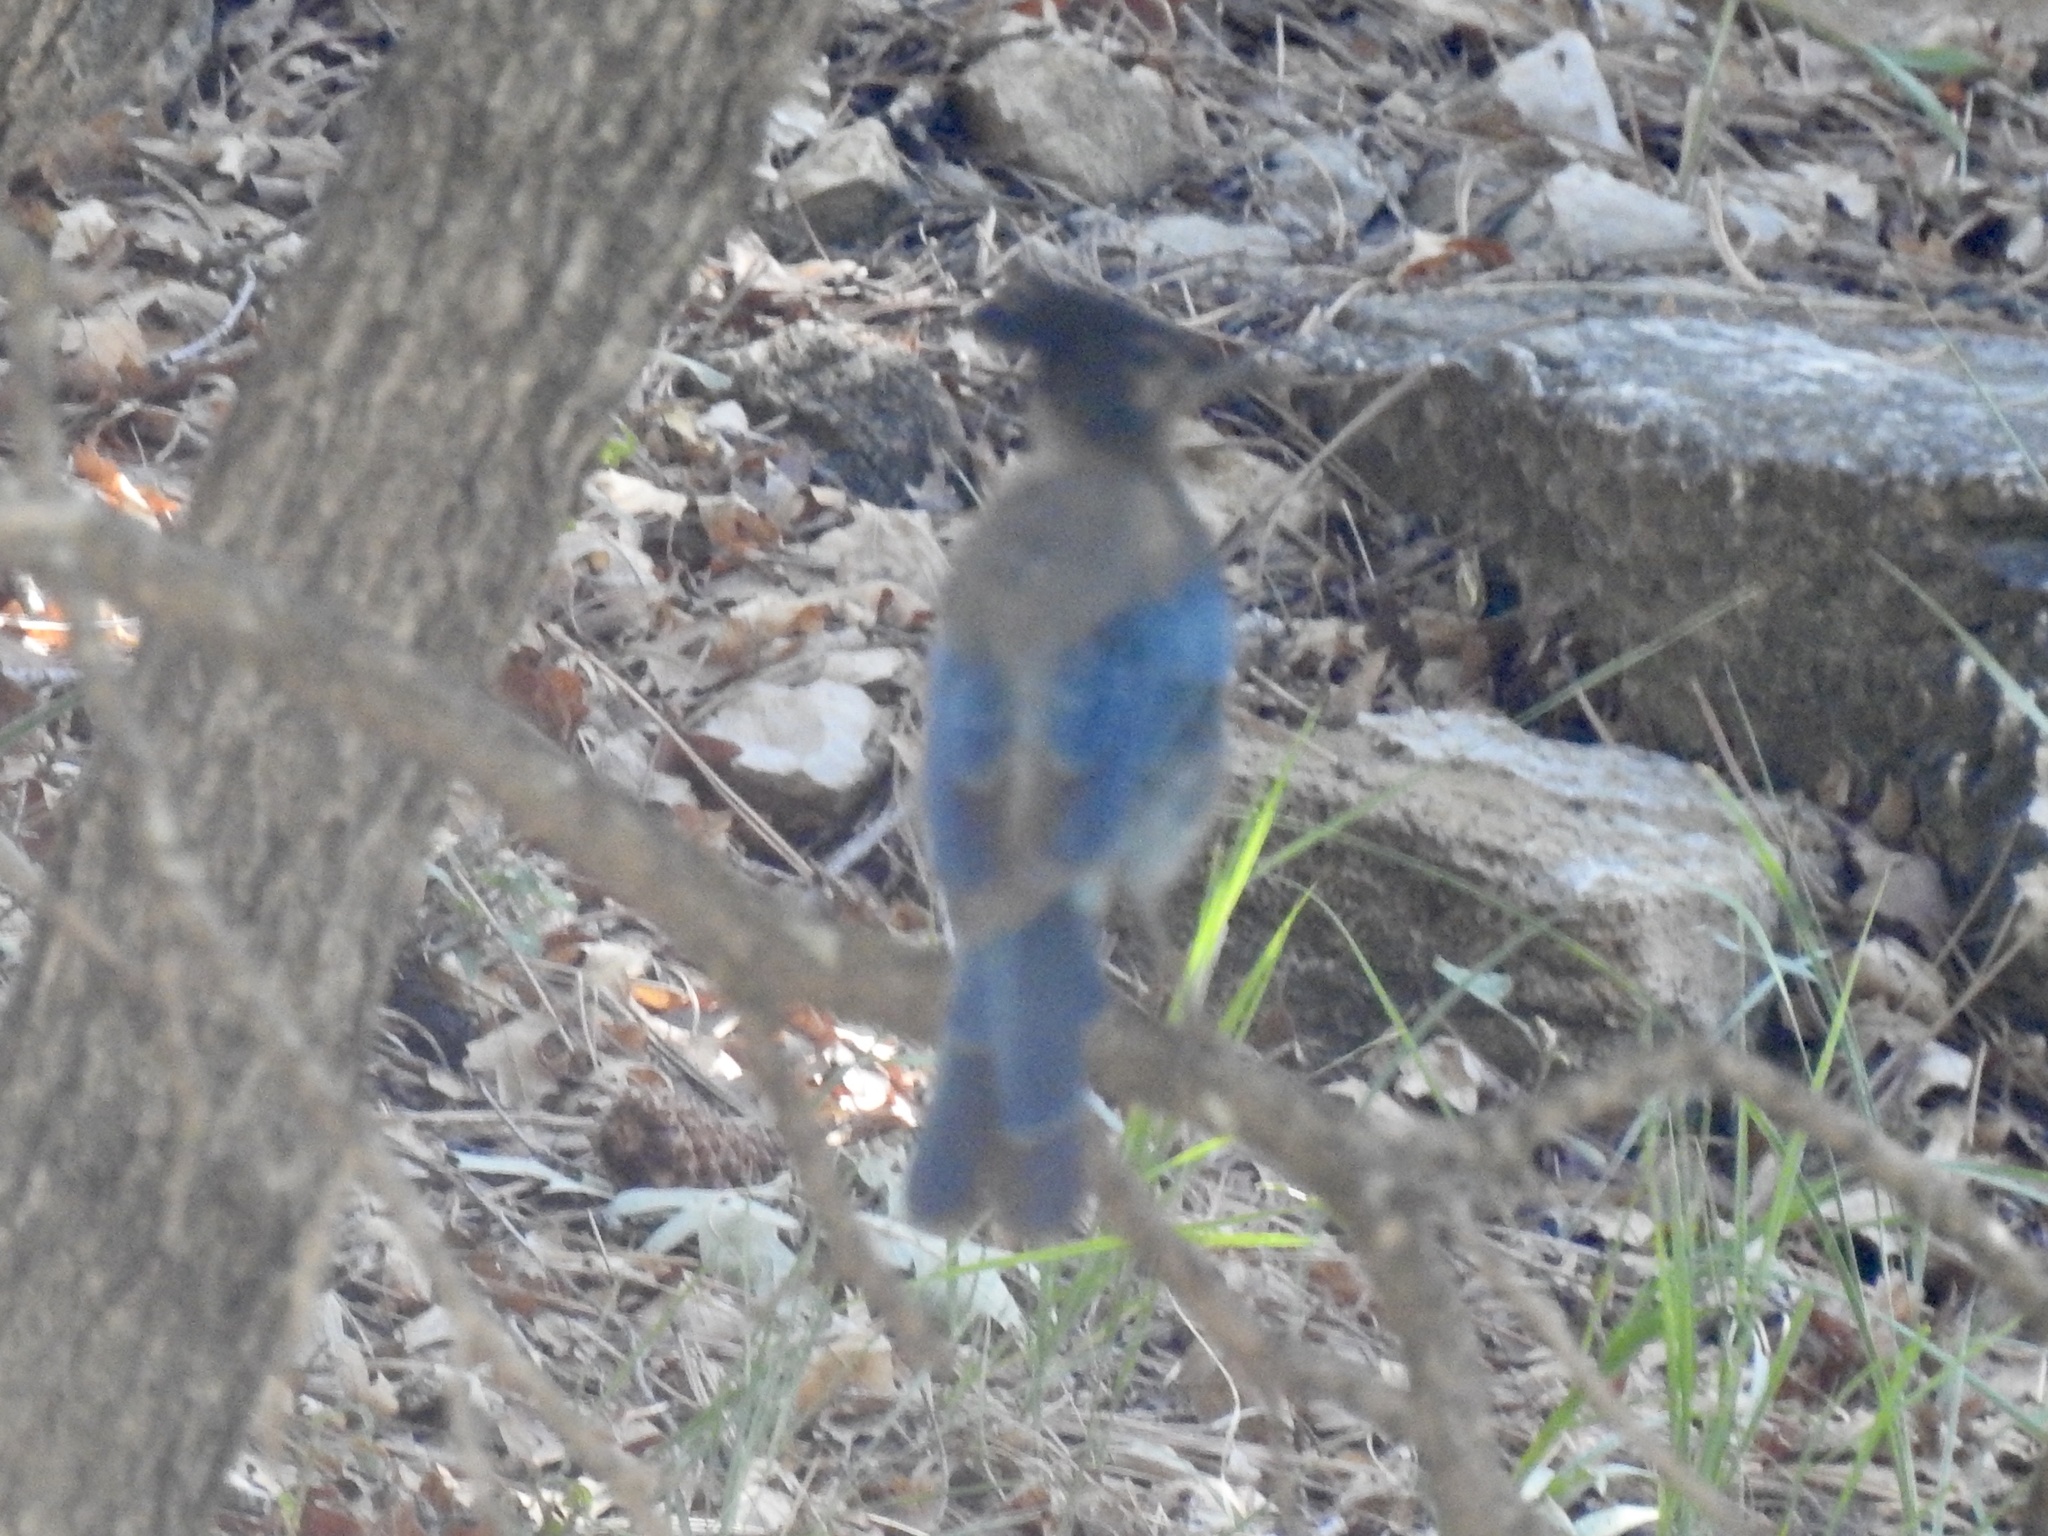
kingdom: Animalia
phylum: Chordata
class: Aves
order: Passeriformes
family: Corvidae
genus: Cyanocitta
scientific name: Cyanocitta stelleri
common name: Steller's jay
